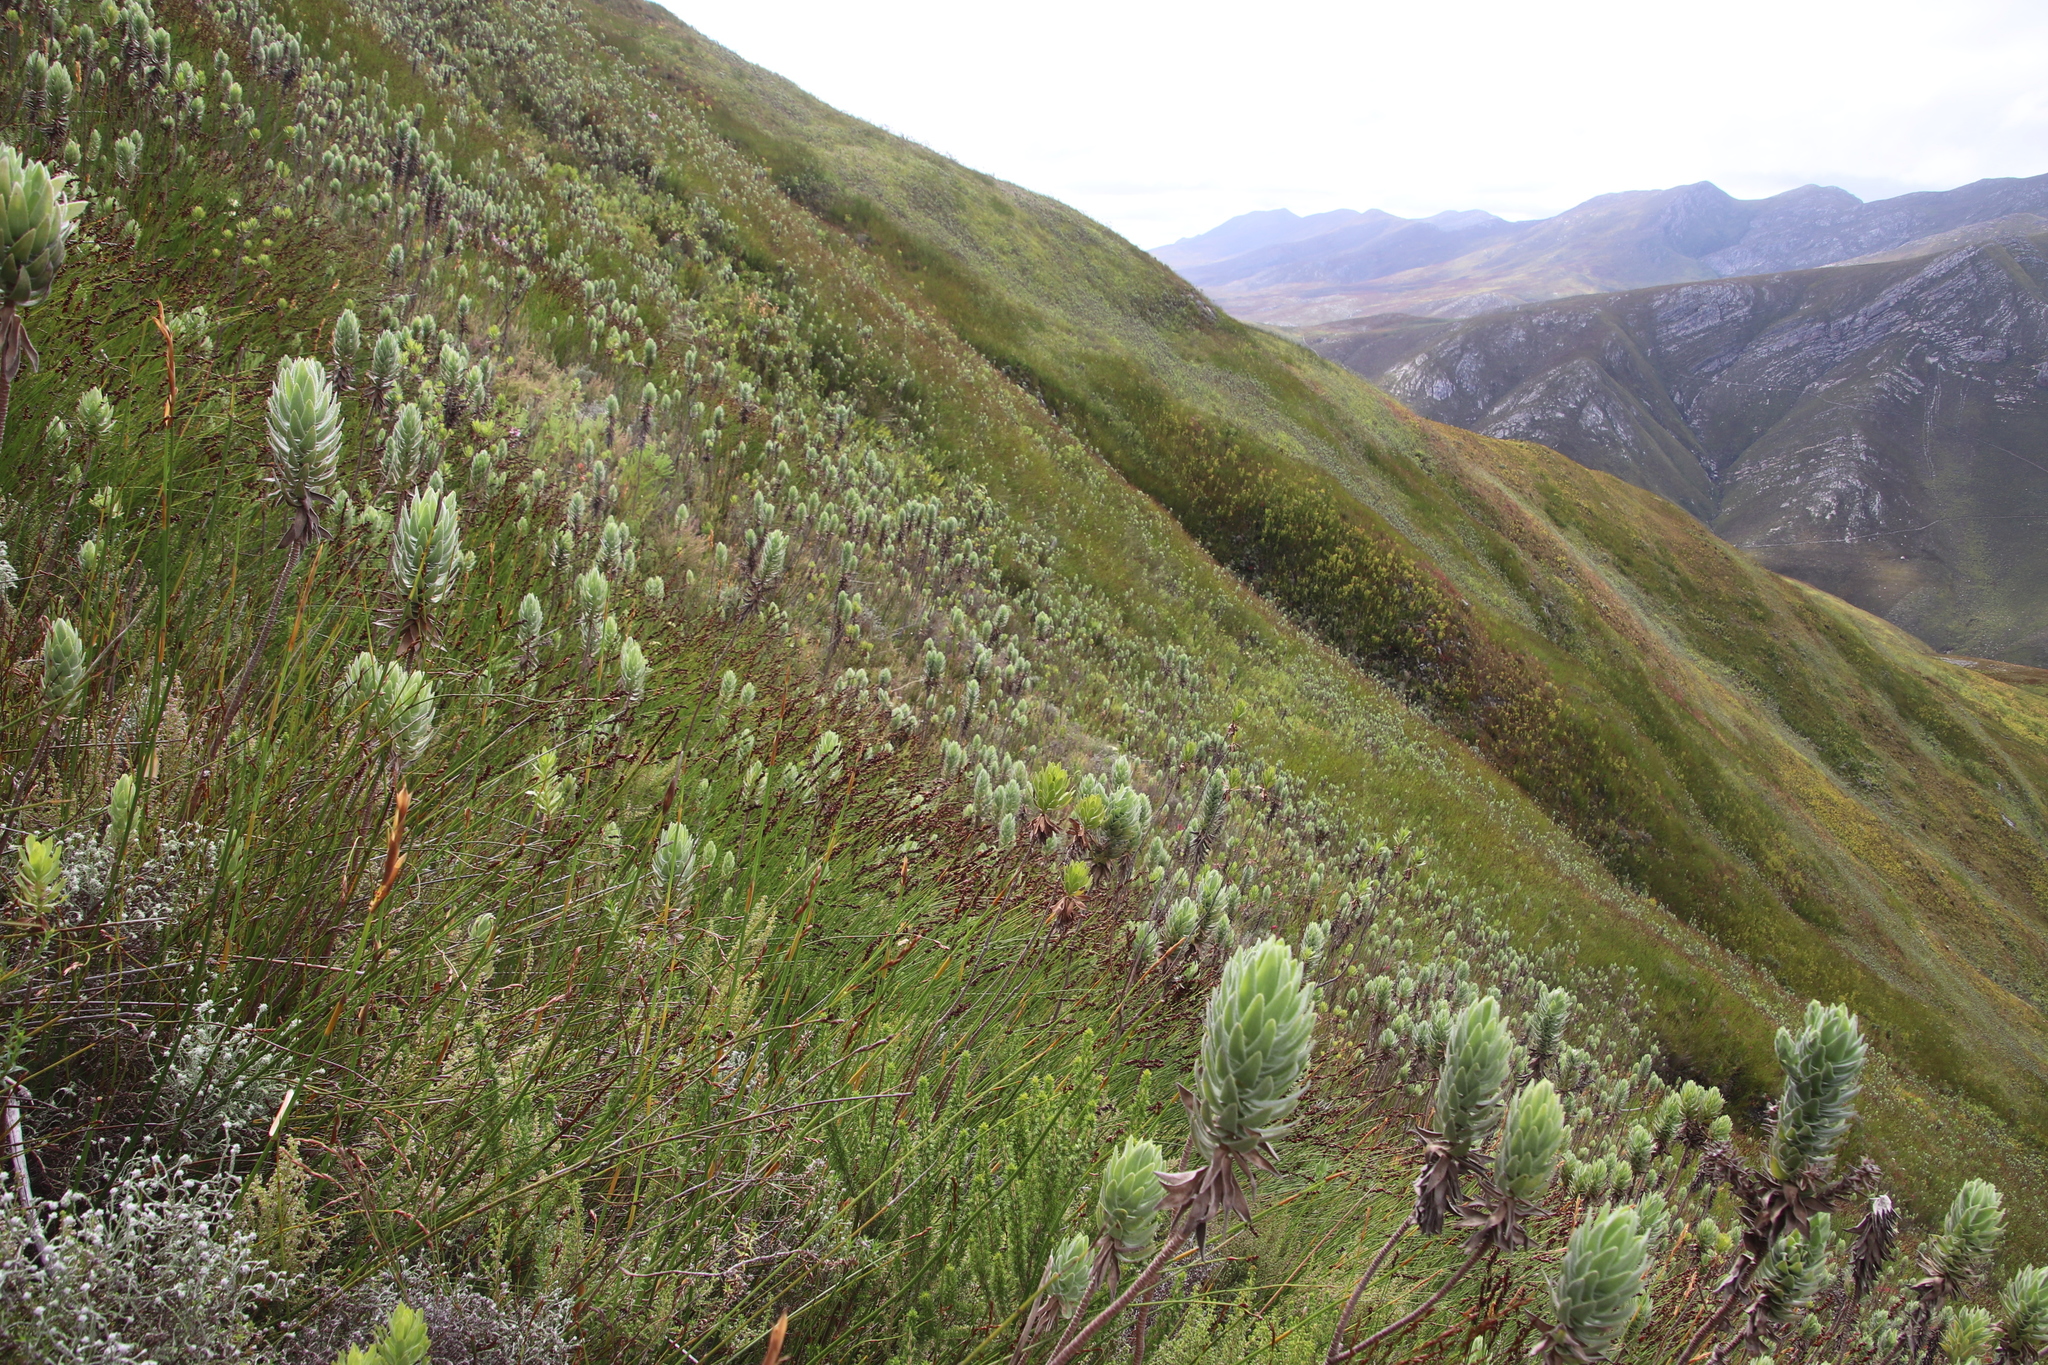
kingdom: Plantae
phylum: Tracheophyta
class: Magnoliopsida
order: Asterales
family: Asteraceae
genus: Osmitopsis
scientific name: Osmitopsis asteriscoides
